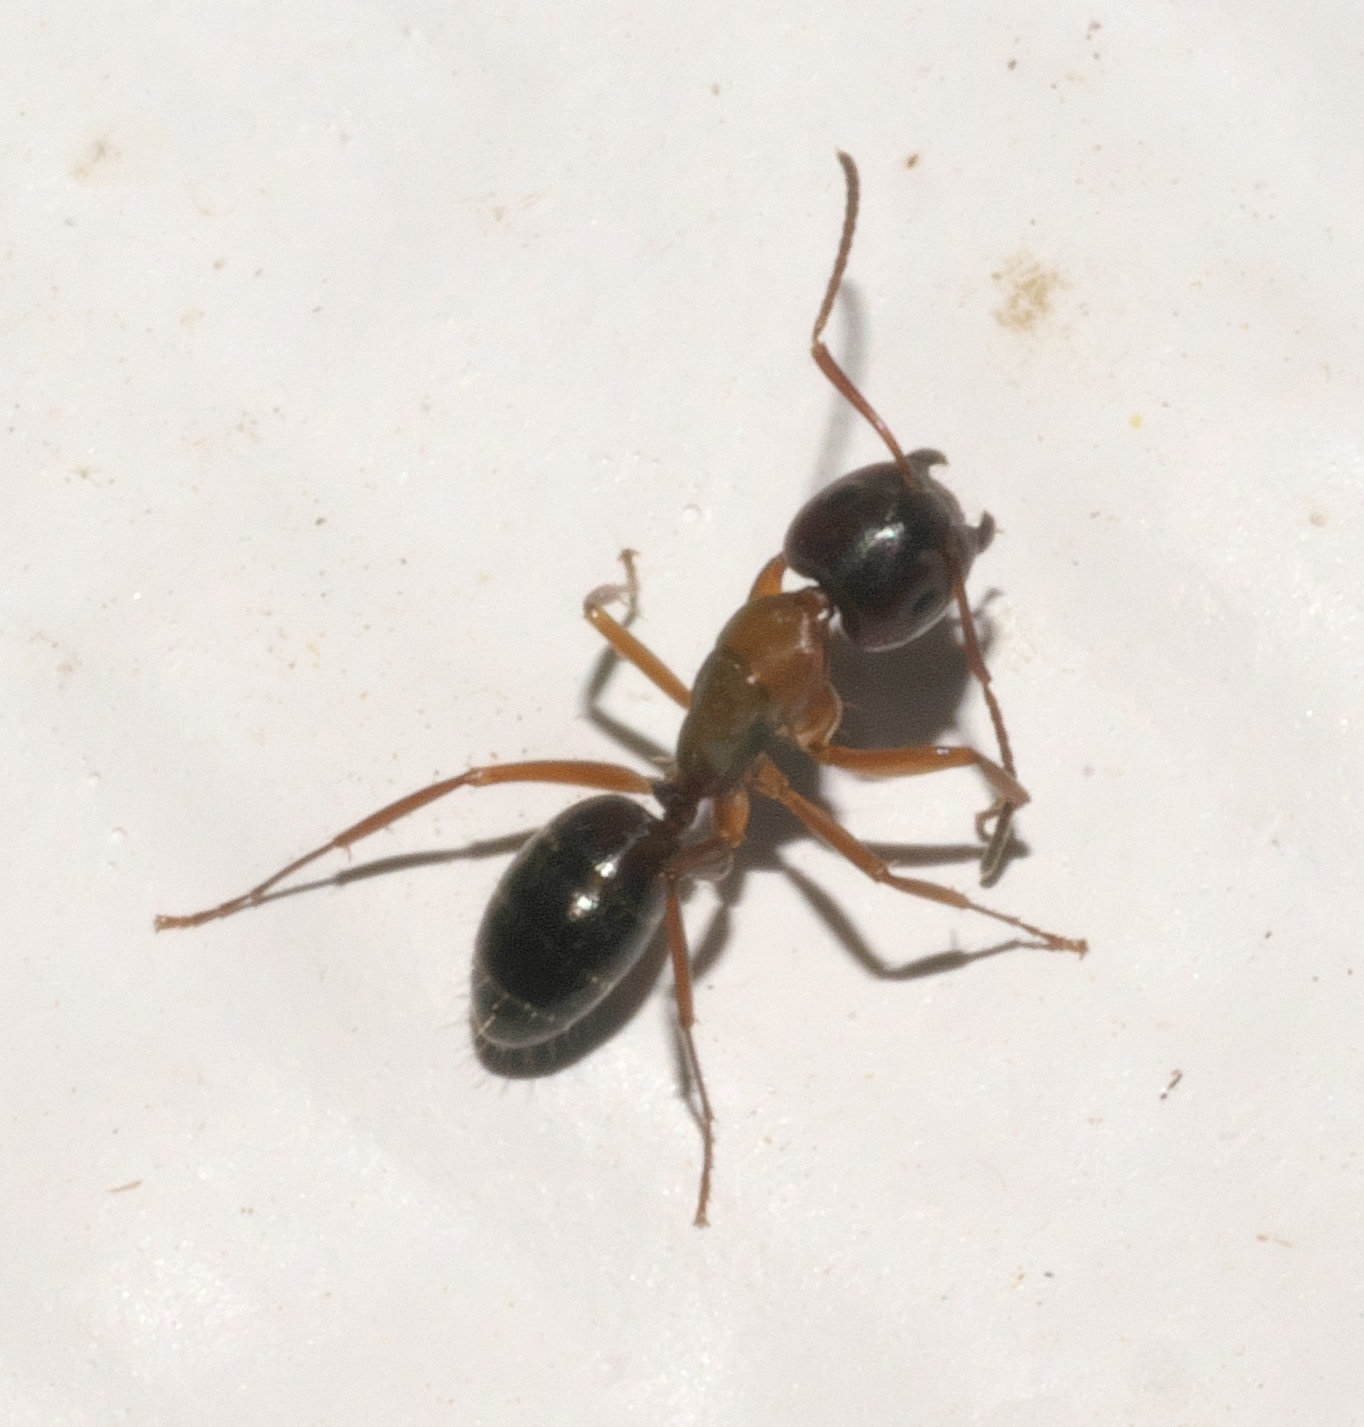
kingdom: Animalia
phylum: Arthropoda
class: Insecta
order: Hymenoptera
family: Formicidae
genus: Camponotus
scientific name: Camponotus nearcticus
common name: Smaller carpenter ant
